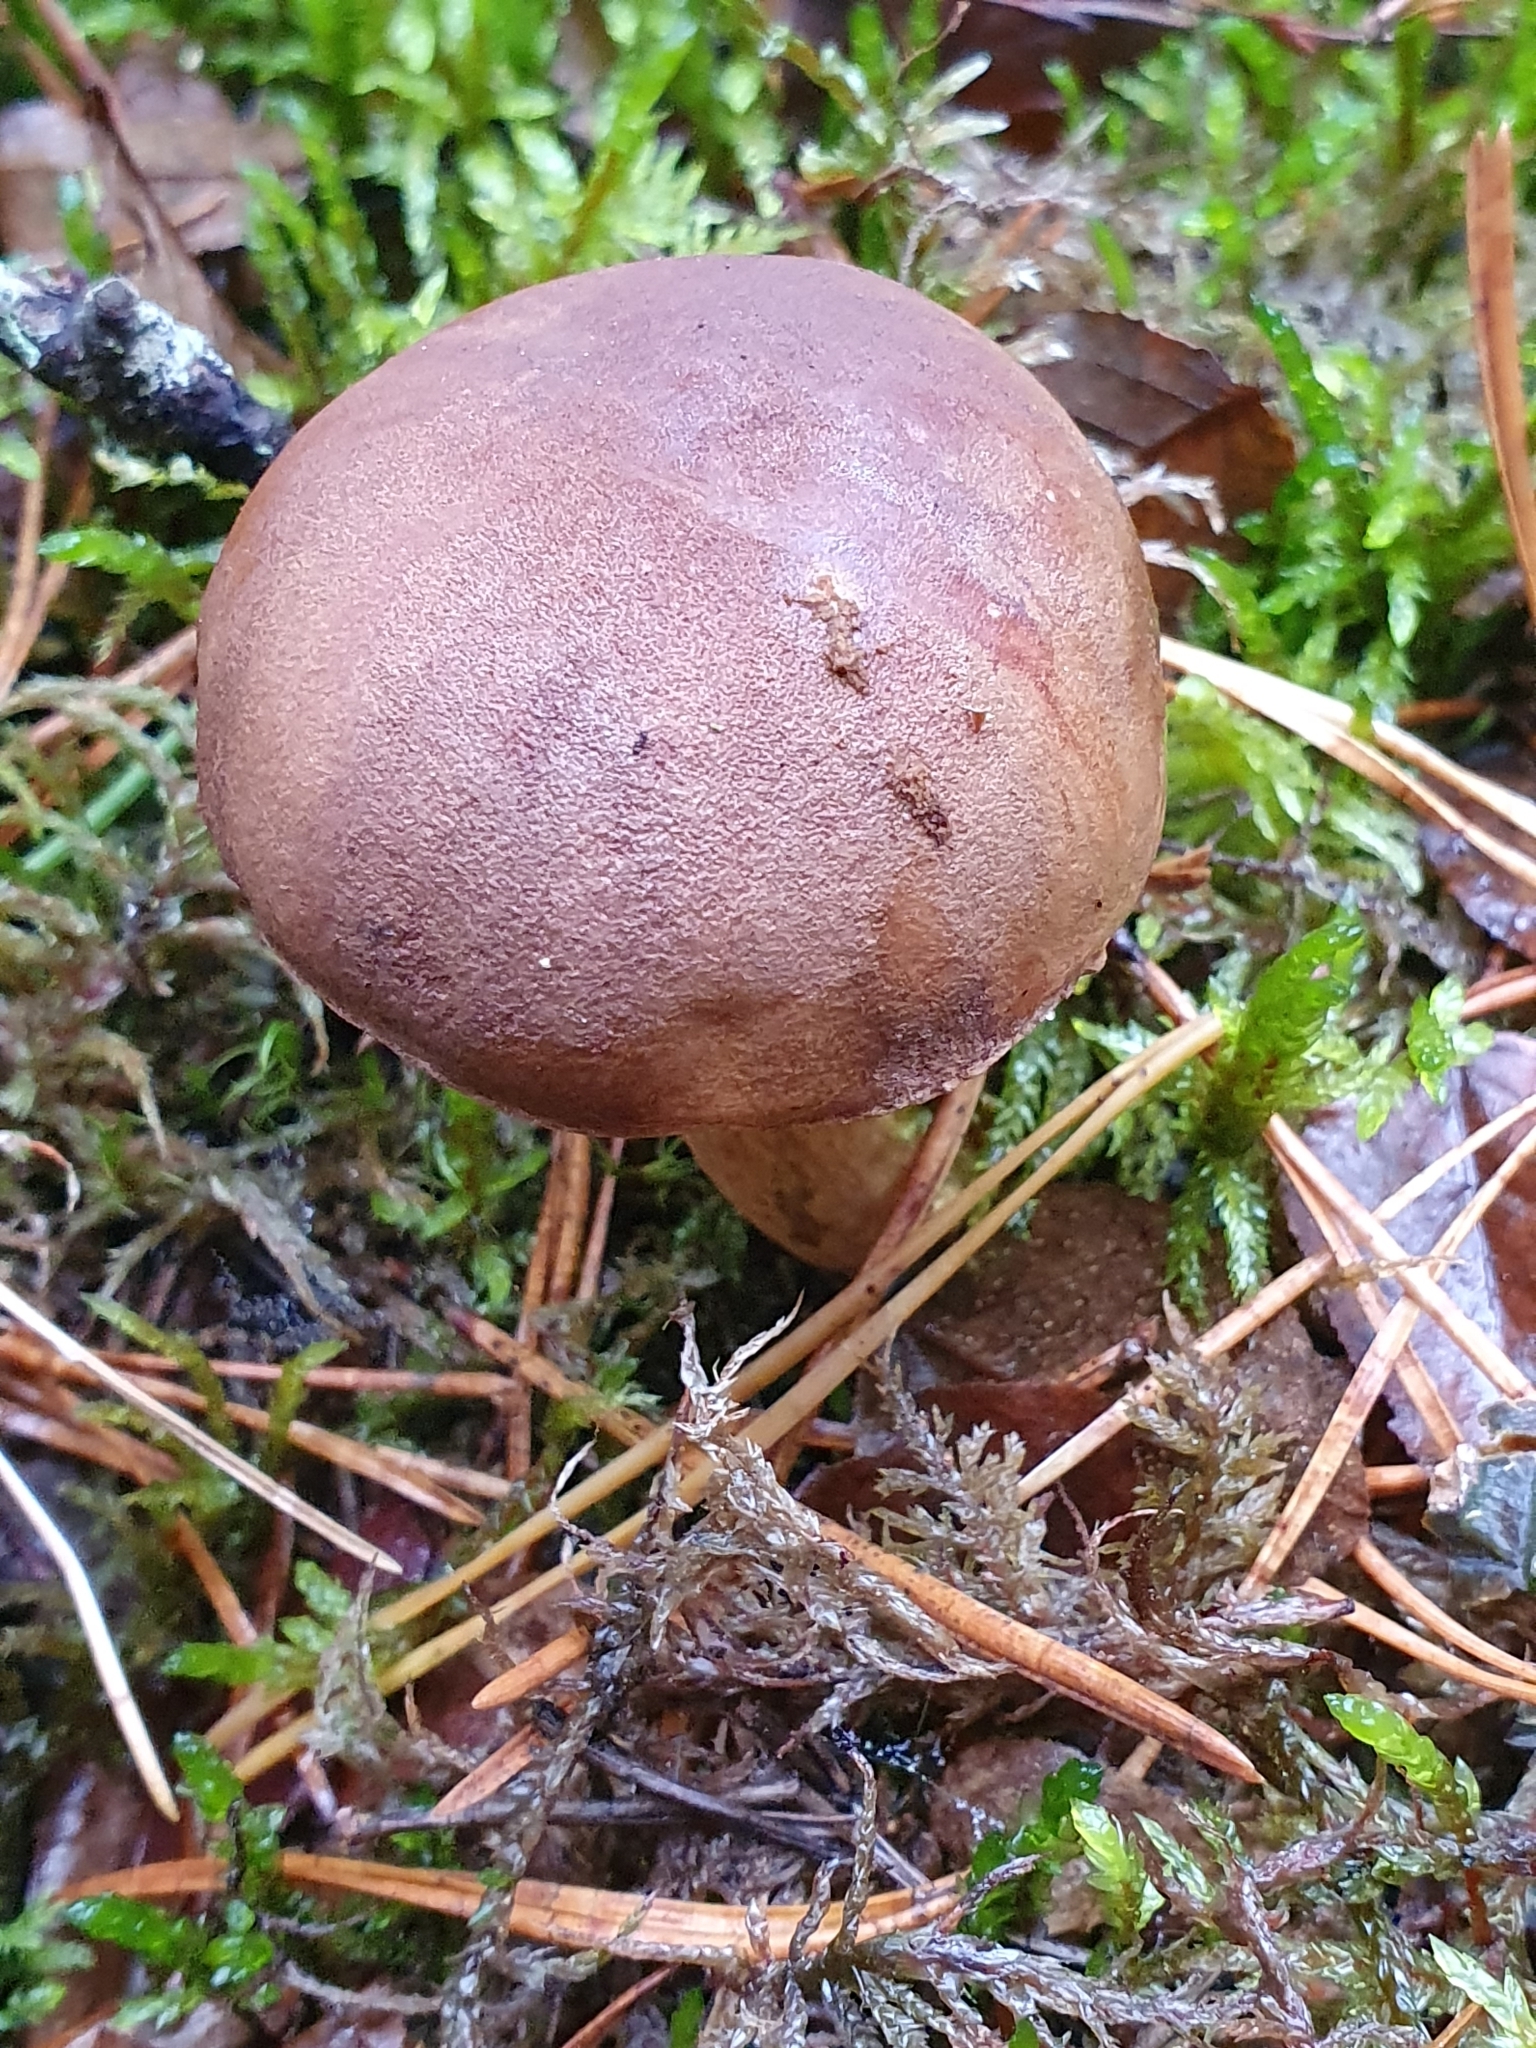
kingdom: Fungi
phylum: Basidiomycota
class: Agaricomycetes
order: Boletales
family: Boletaceae
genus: Imleria
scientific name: Imleria badia
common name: Bay bolete
